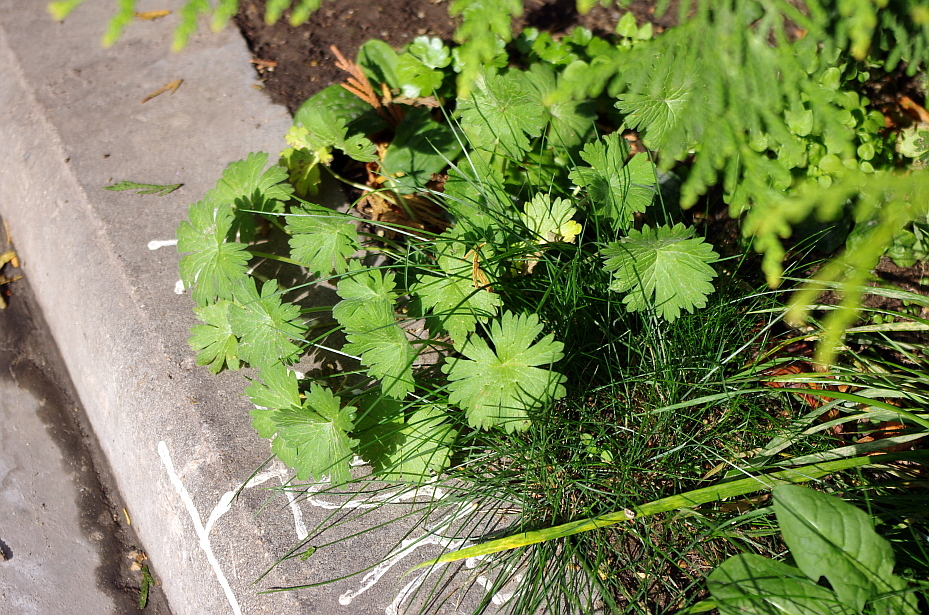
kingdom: Plantae
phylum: Tracheophyta
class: Magnoliopsida
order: Geraniales
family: Geraniaceae
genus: Geranium
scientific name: Geranium pusillum
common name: Small geranium
